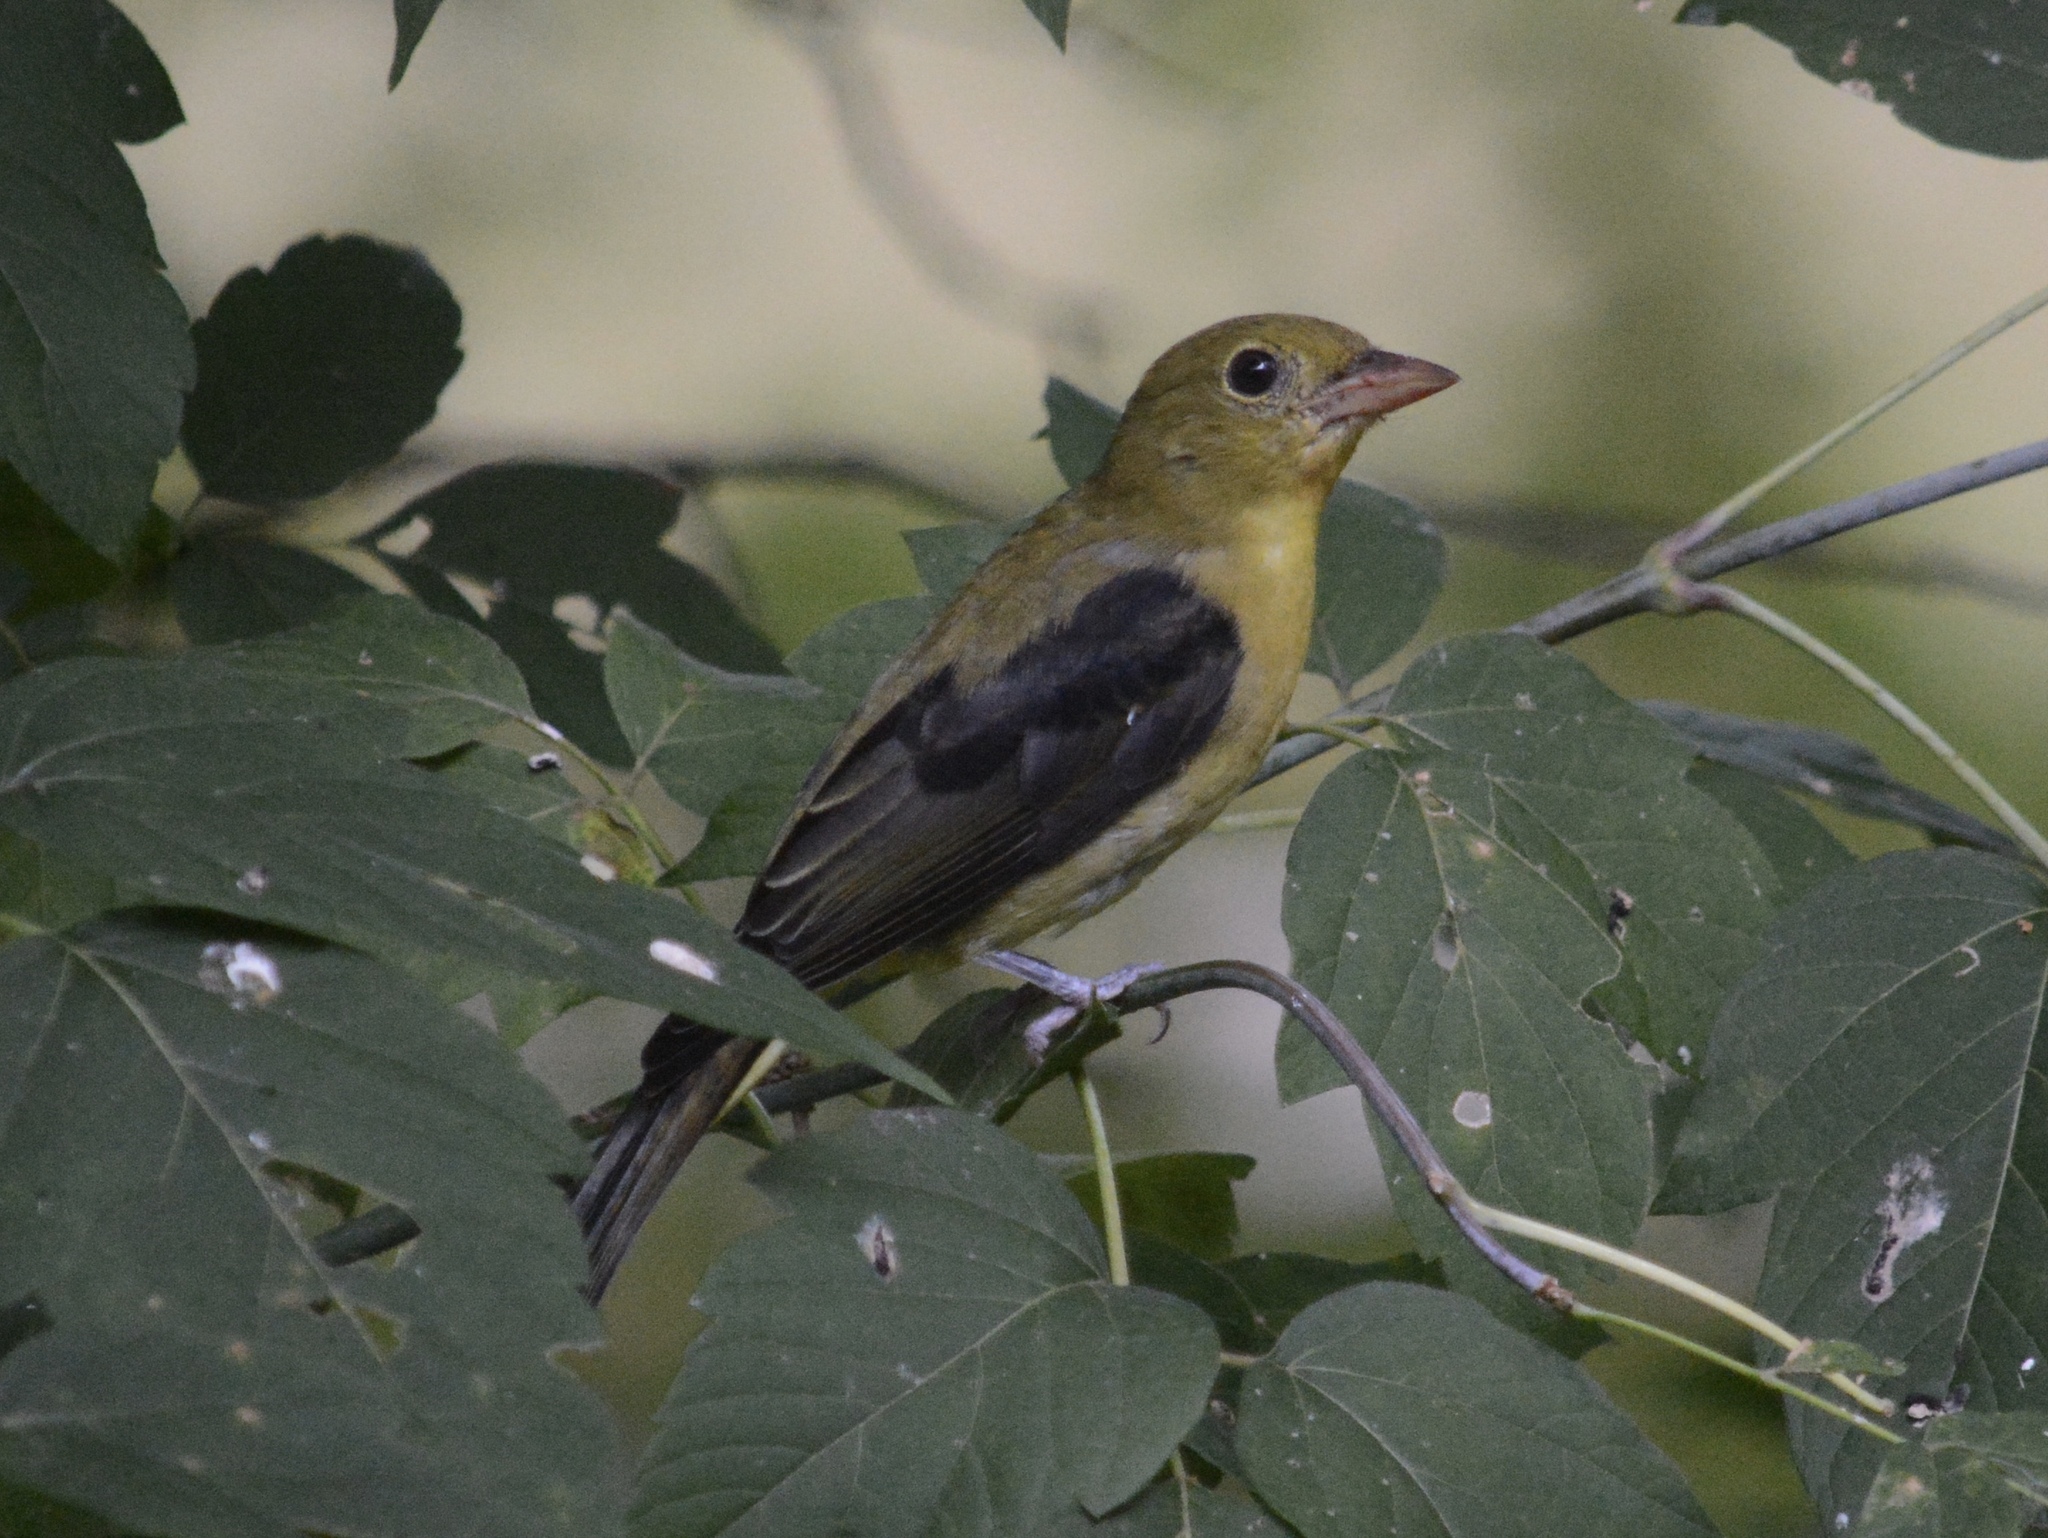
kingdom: Animalia
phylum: Chordata
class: Aves
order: Passeriformes
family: Cardinalidae
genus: Piranga
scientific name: Piranga olivacea
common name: Scarlet tanager
